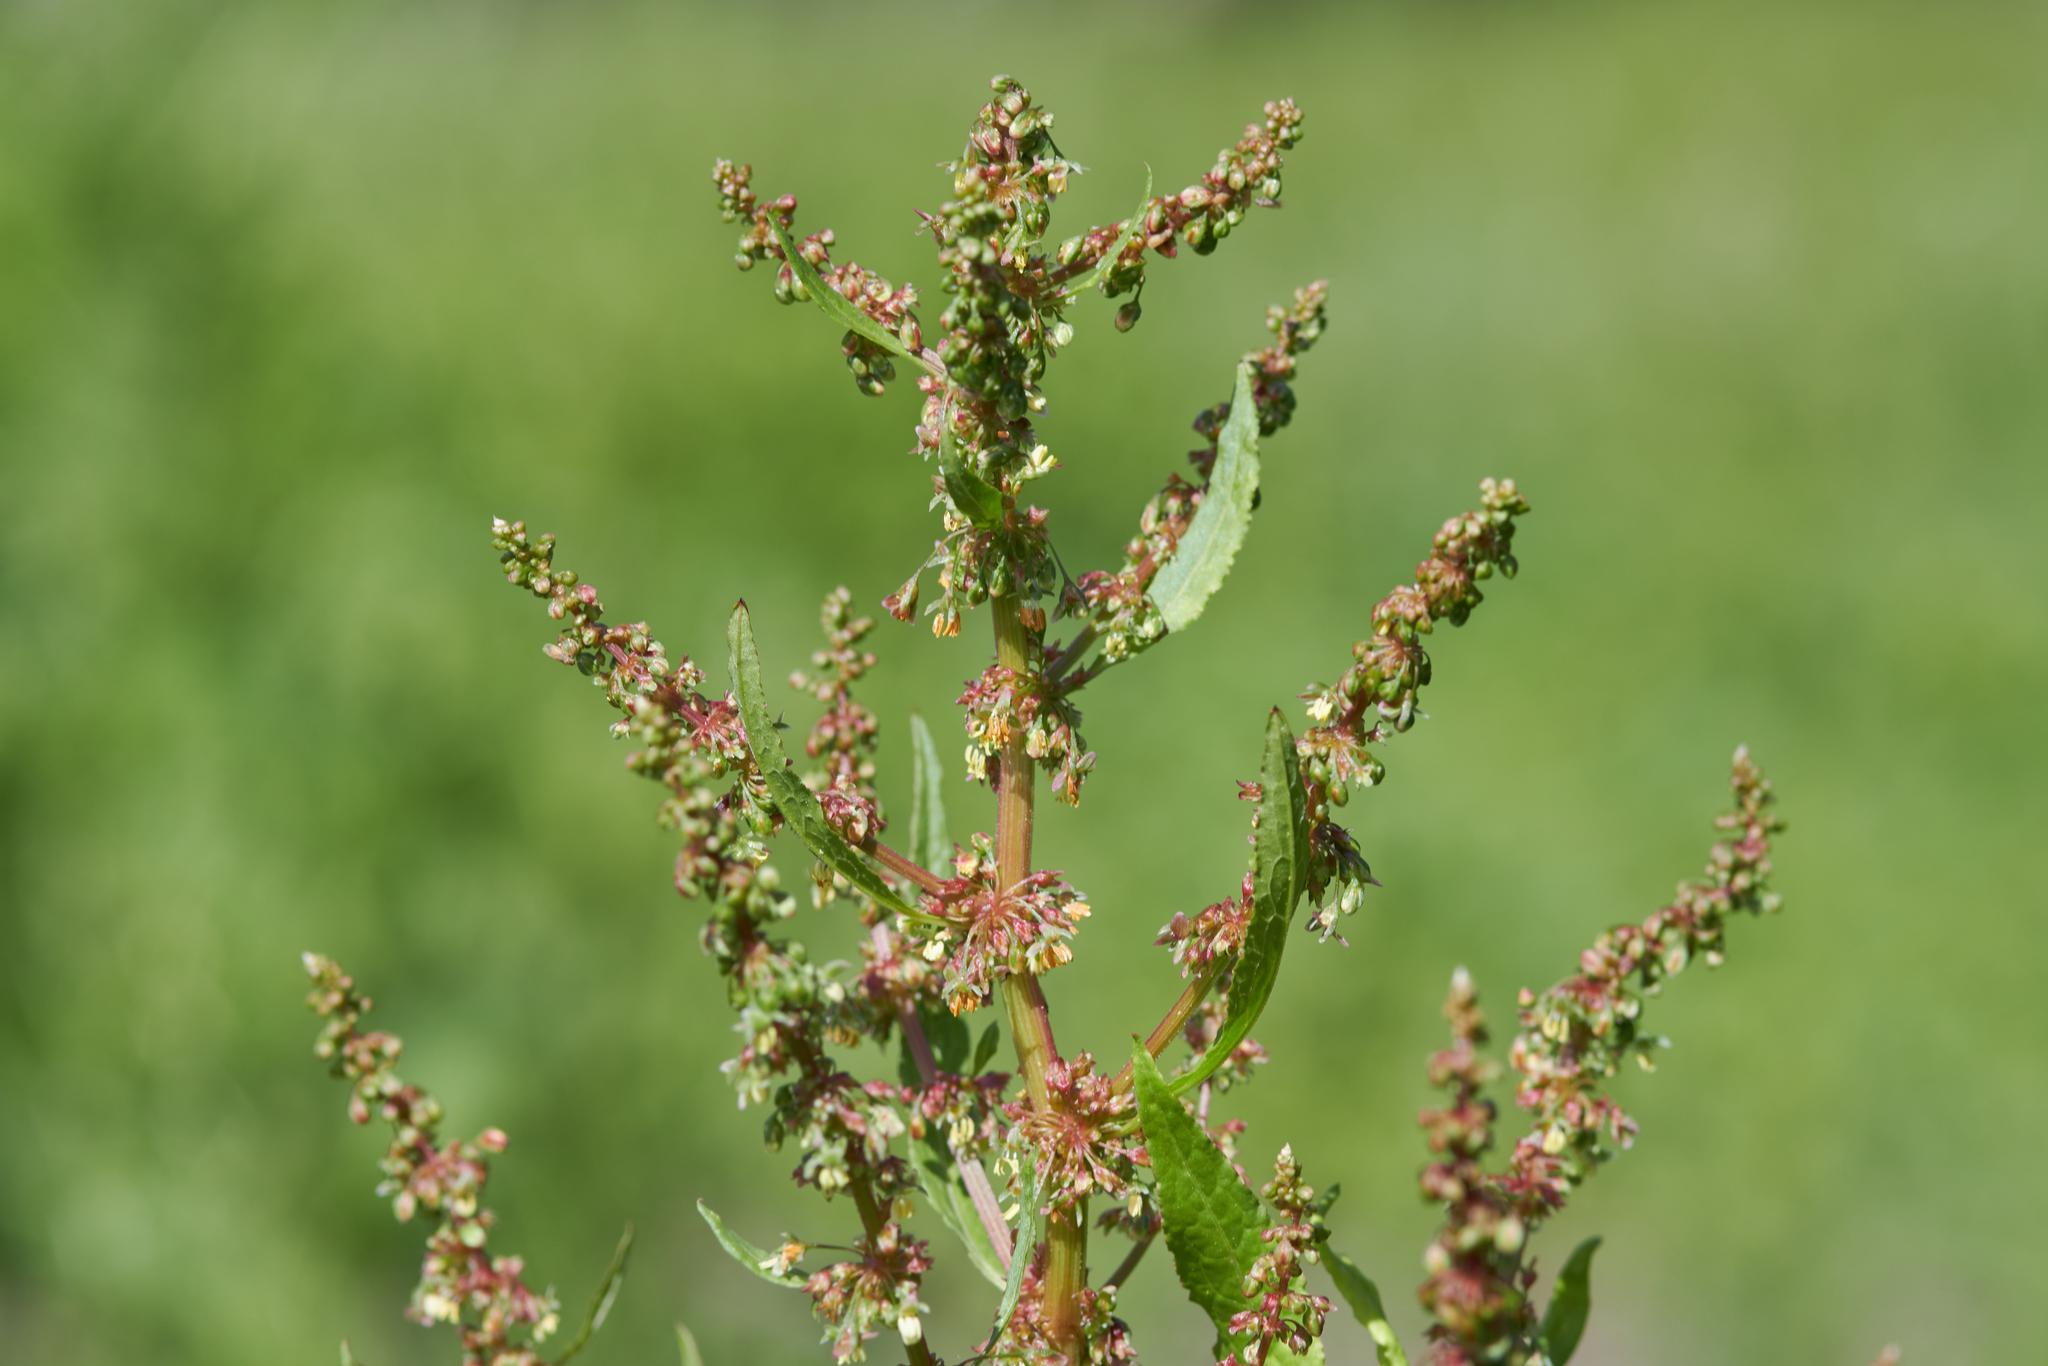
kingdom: Plantae
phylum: Tracheophyta
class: Magnoliopsida
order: Caryophyllales
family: Polygonaceae
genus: Rumex
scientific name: Rumex obtusifolius
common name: Bitter dock
